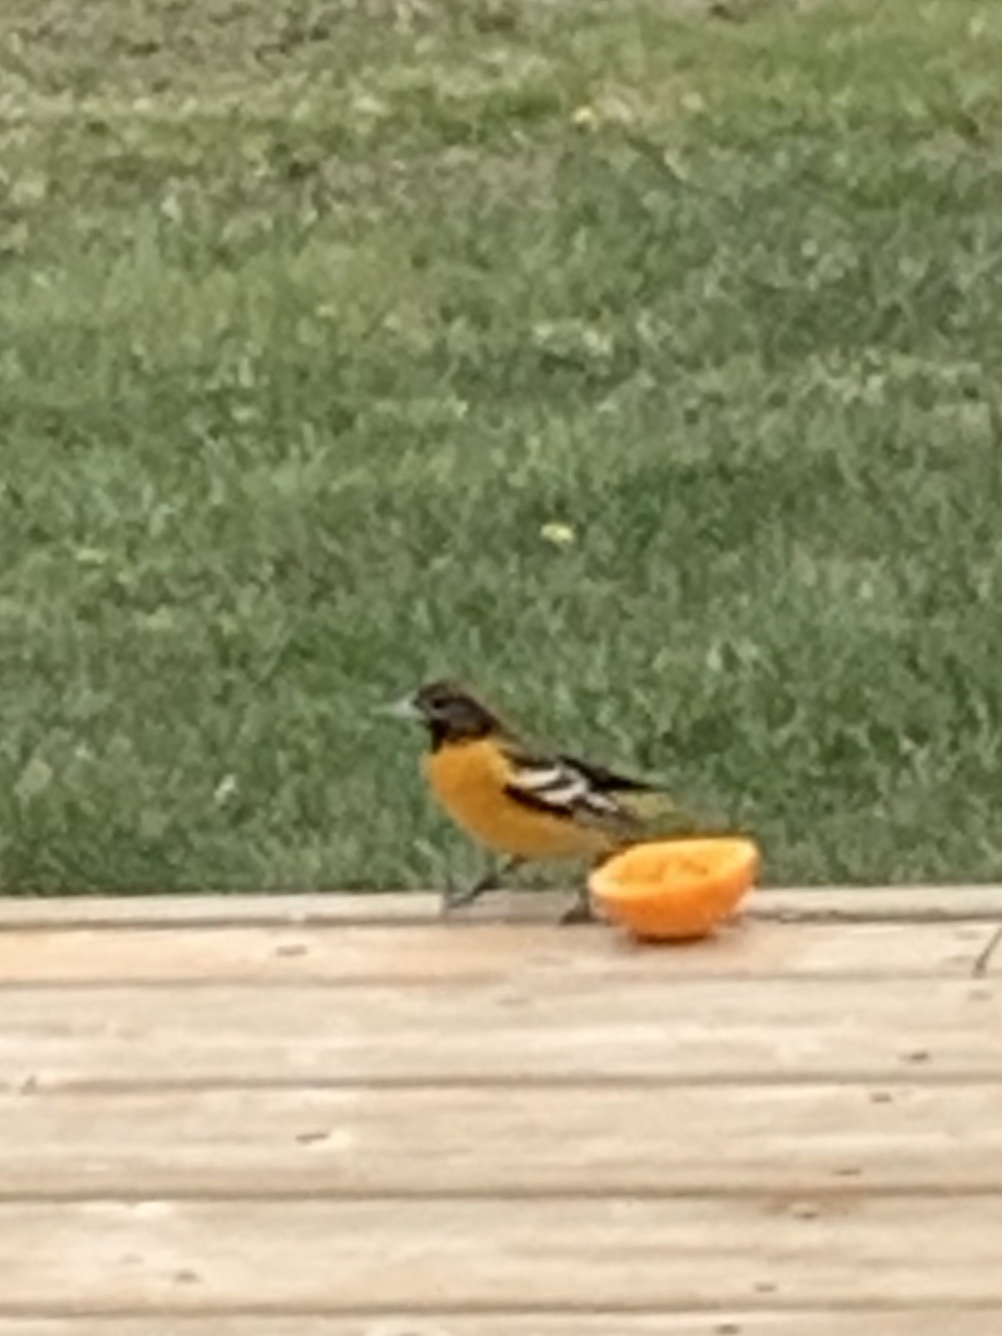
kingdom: Animalia
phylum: Chordata
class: Aves
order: Passeriformes
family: Icteridae
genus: Icterus
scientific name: Icterus galbula
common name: Baltimore oriole
